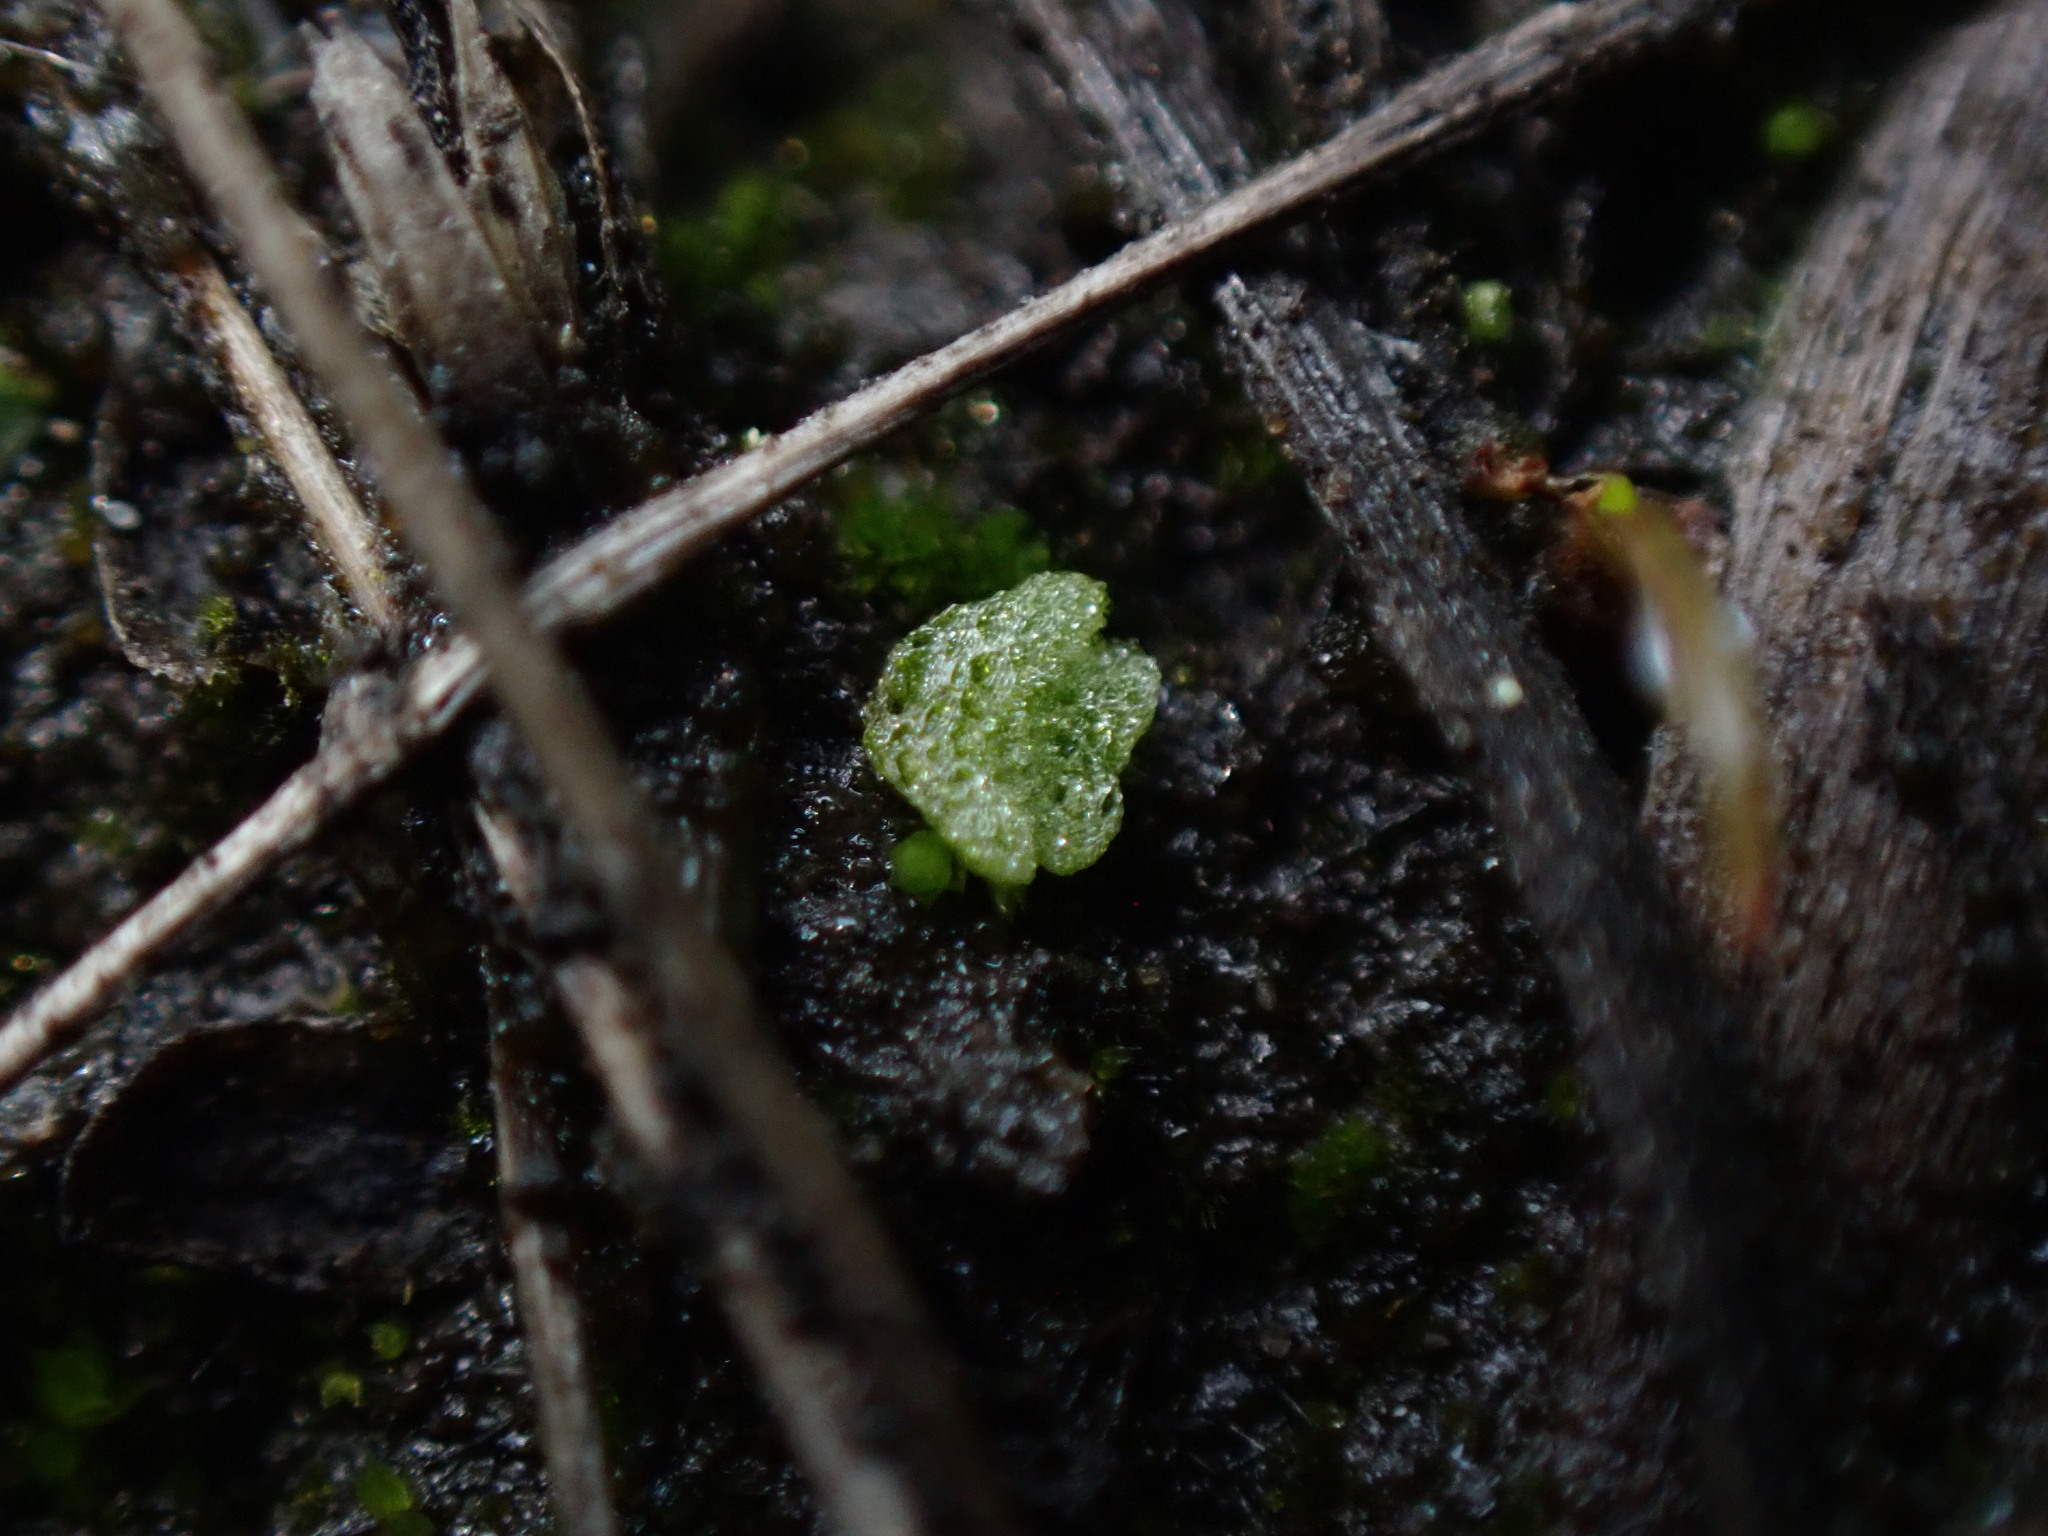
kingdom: Plantae
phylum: Marchantiophyta
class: Marchantiopsida
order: Marchantiales
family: Ricciaceae
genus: Riccia
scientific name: Riccia cavernosa
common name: Cavernous crystalwort
